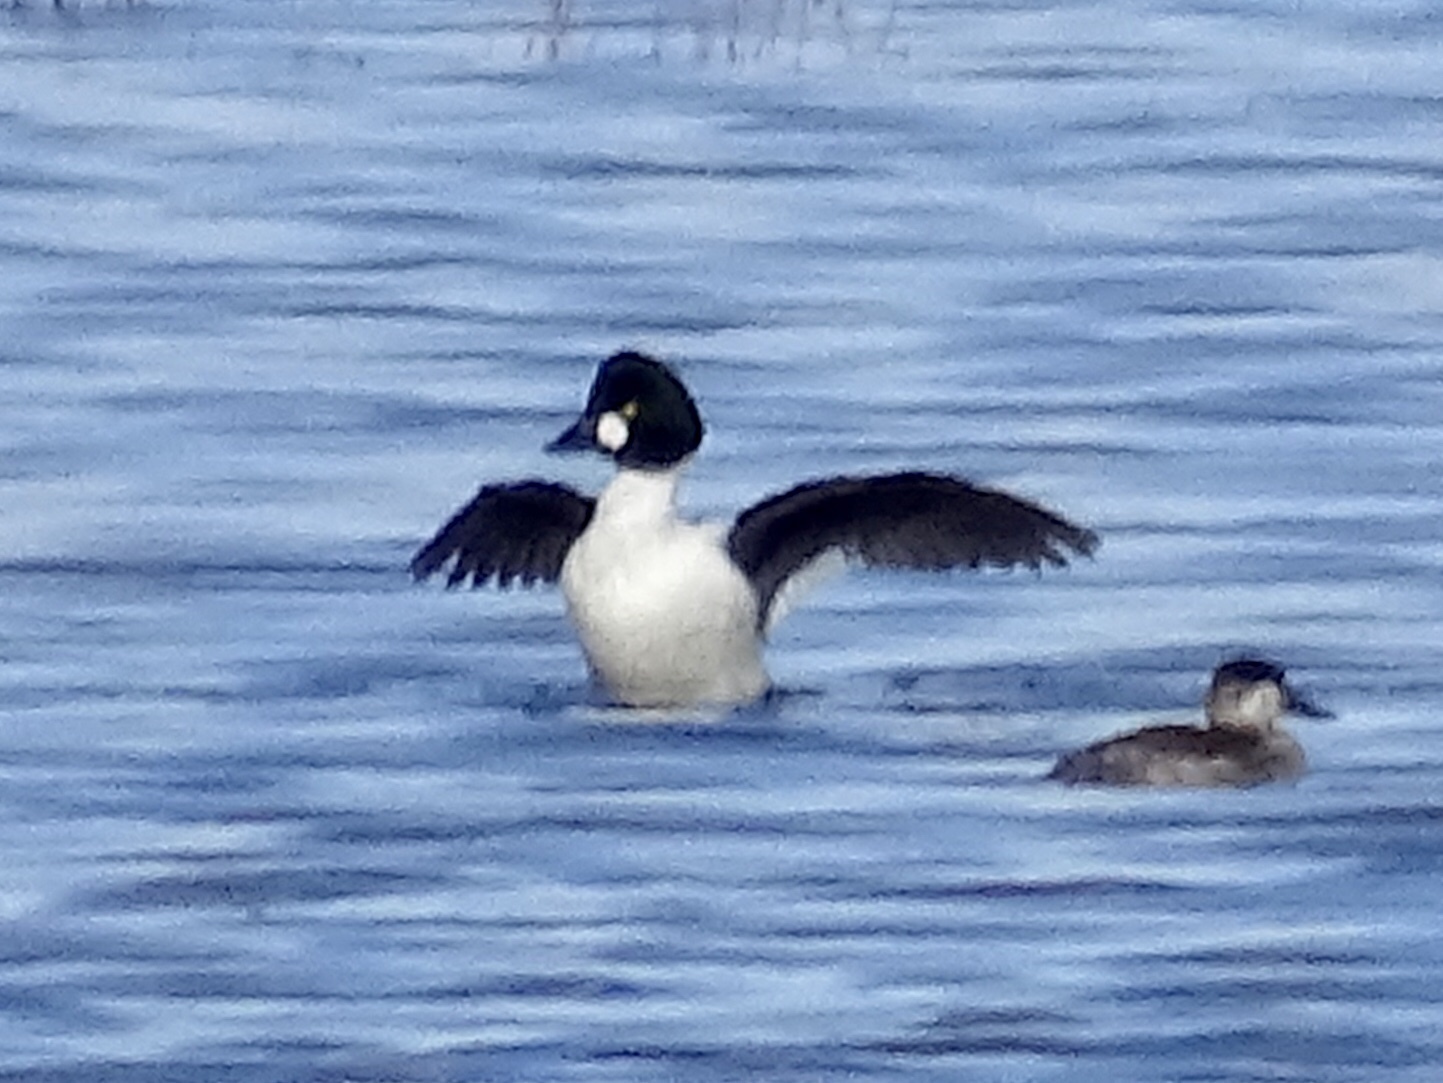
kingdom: Animalia
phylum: Chordata
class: Aves
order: Anseriformes
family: Anatidae
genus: Bucephala
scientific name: Bucephala clangula
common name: Common goldeneye
